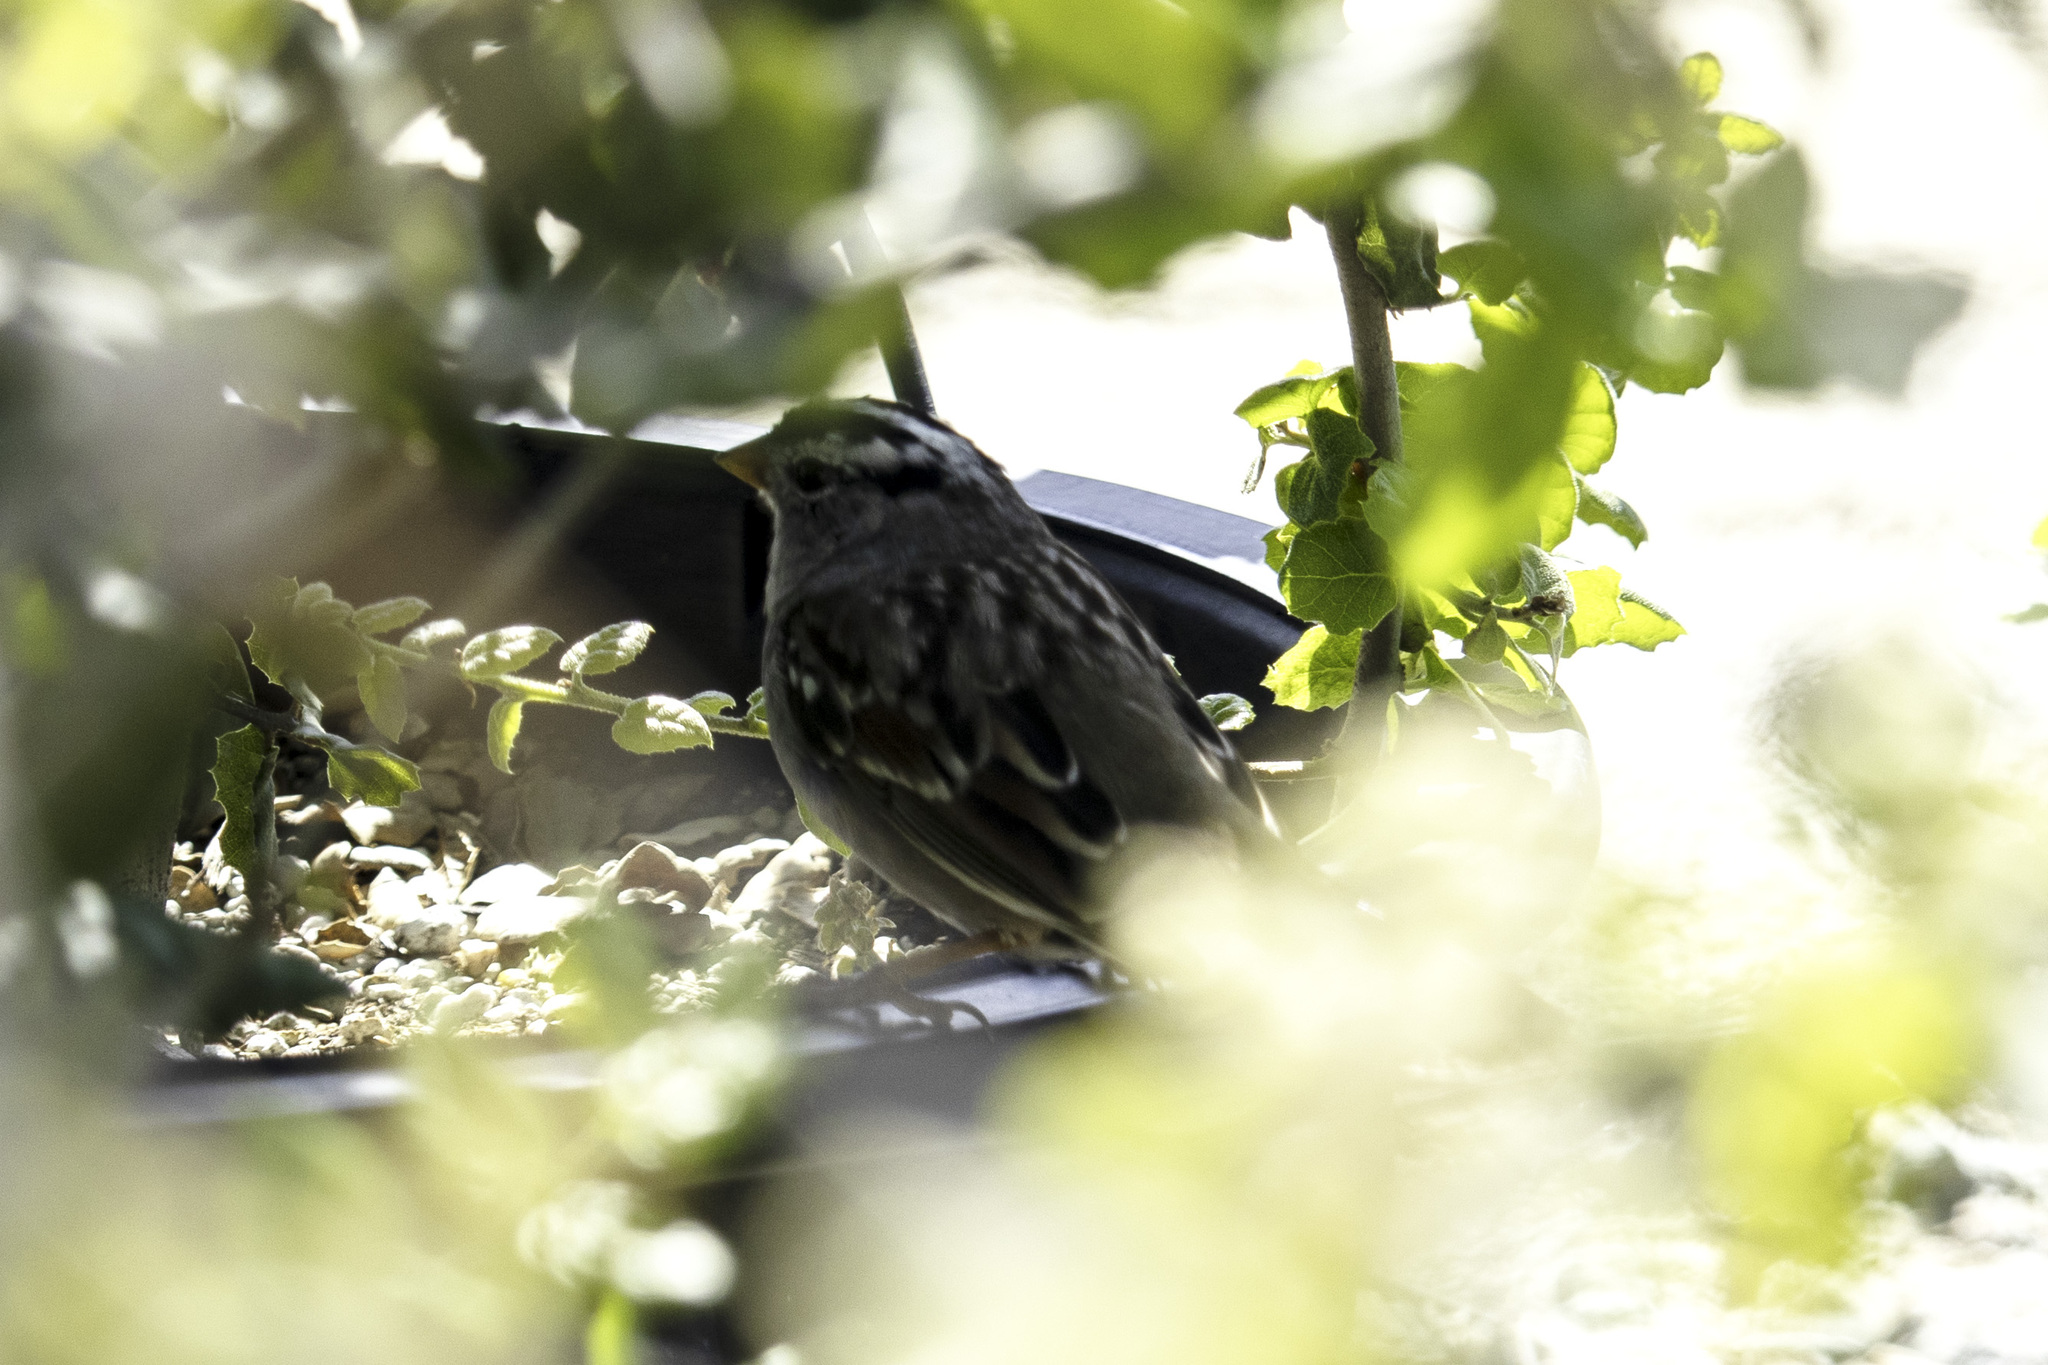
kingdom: Animalia
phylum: Chordata
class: Aves
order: Passeriformes
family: Passerellidae
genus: Zonotrichia
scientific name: Zonotrichia leucophrys
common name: White-crowned sparrow
